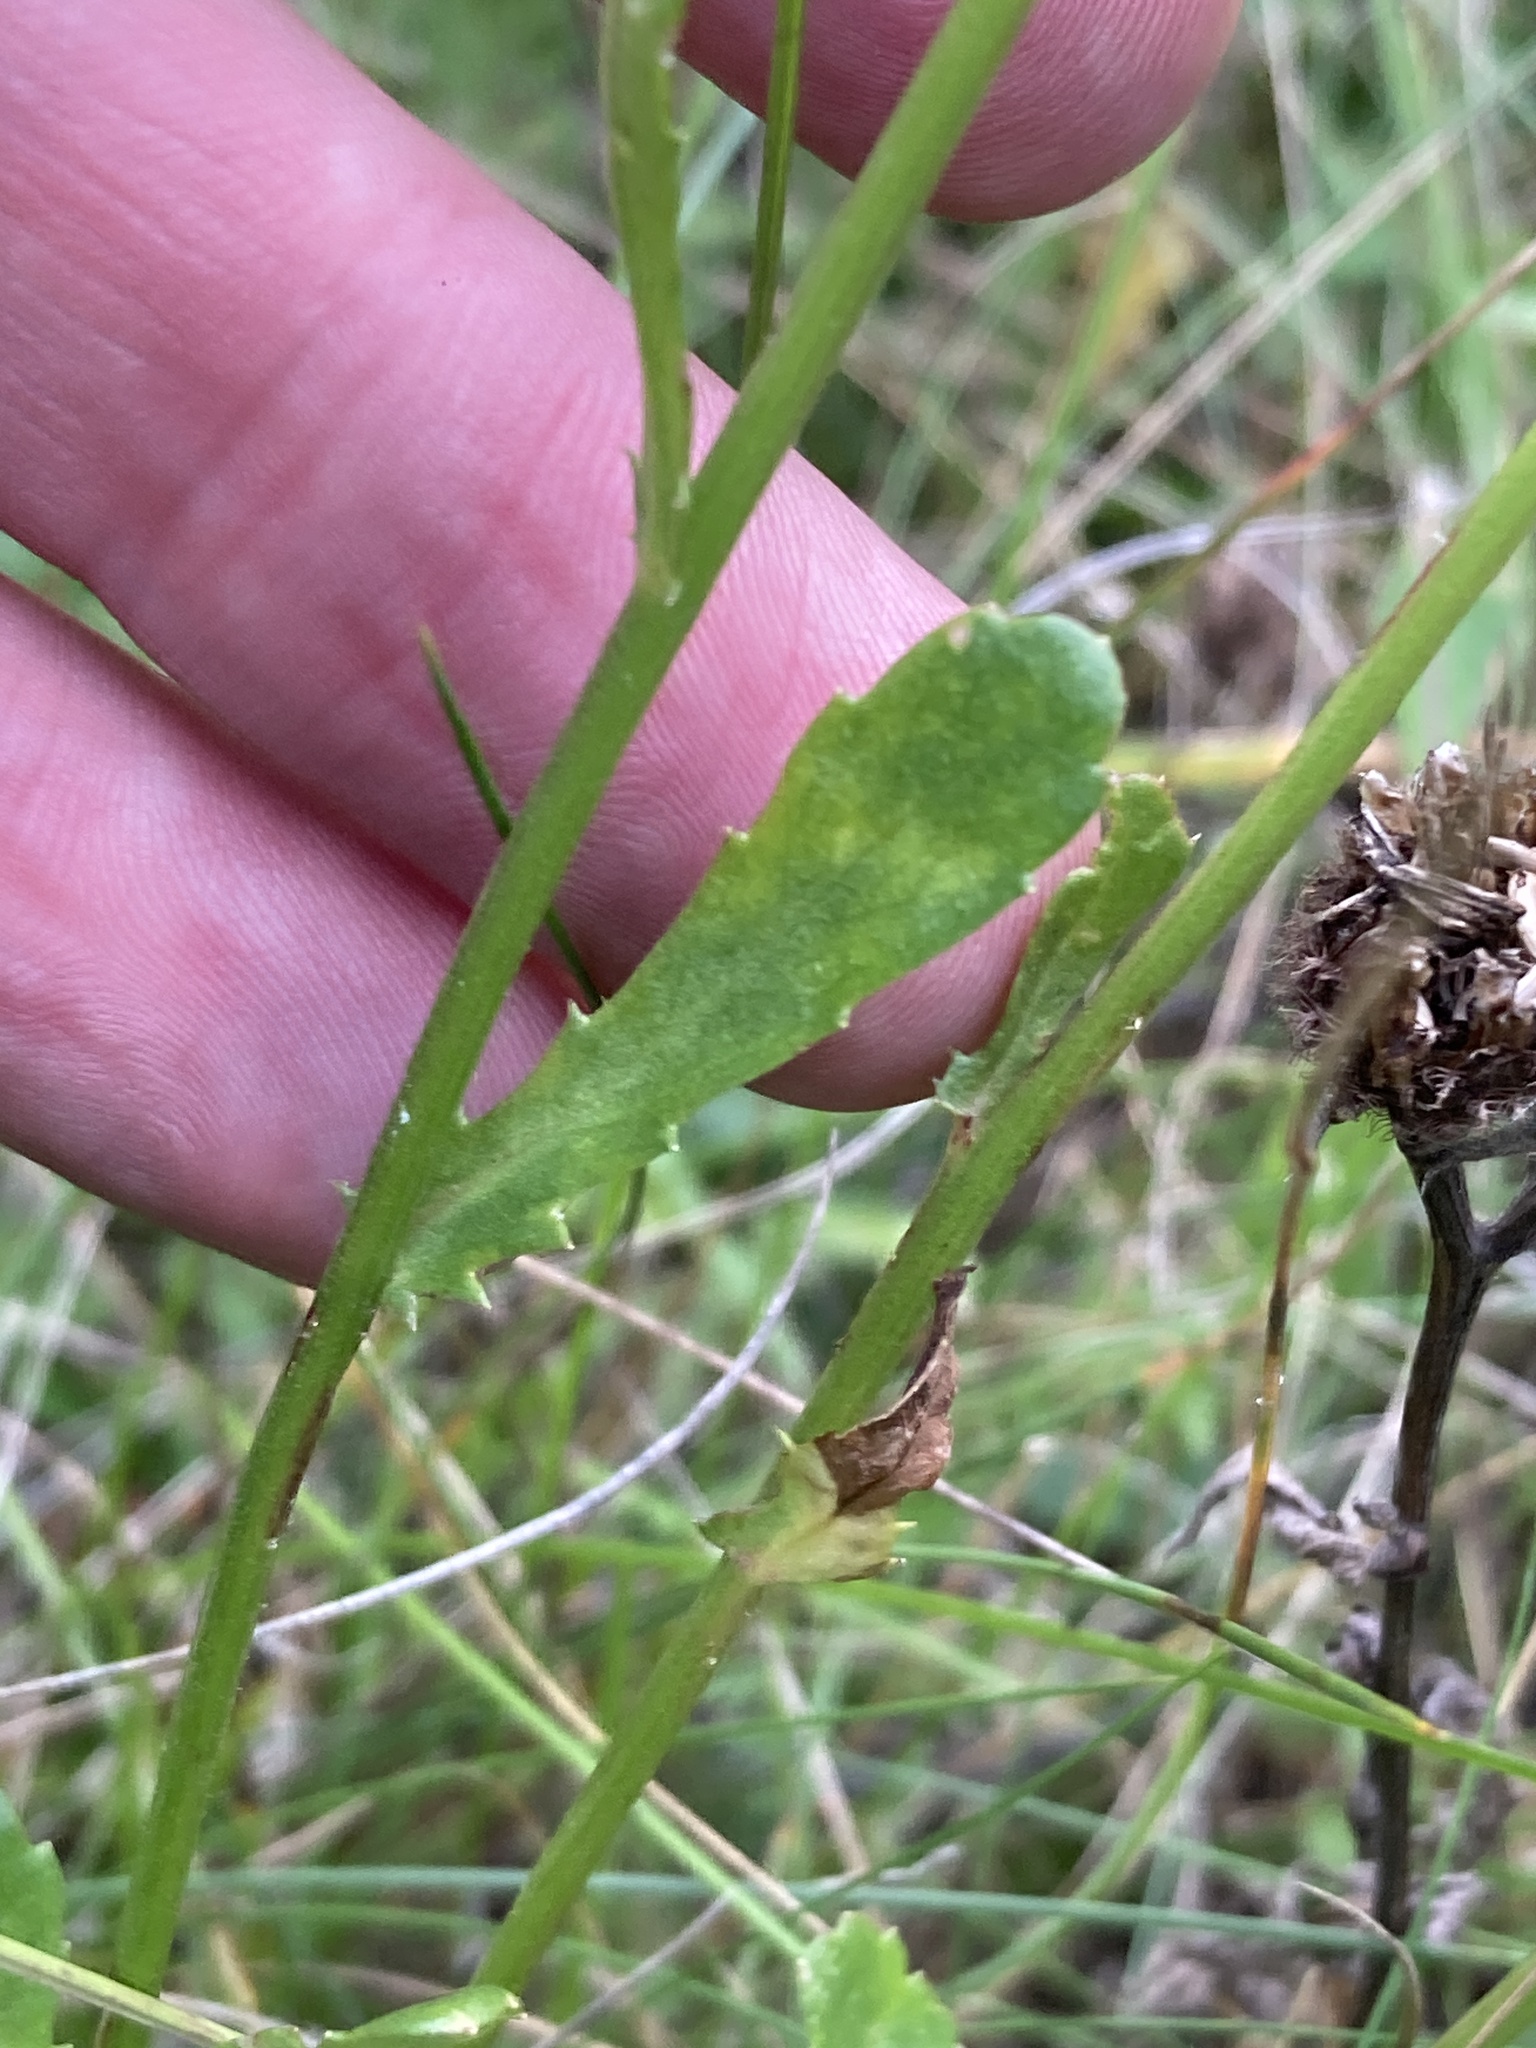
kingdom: Plantae
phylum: Tracheophyta
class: Magnoliopsida
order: Asterales
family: Asteraceae
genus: Leucanthemum
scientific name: Leucanthemum vulgare
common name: Oxeye daisy
